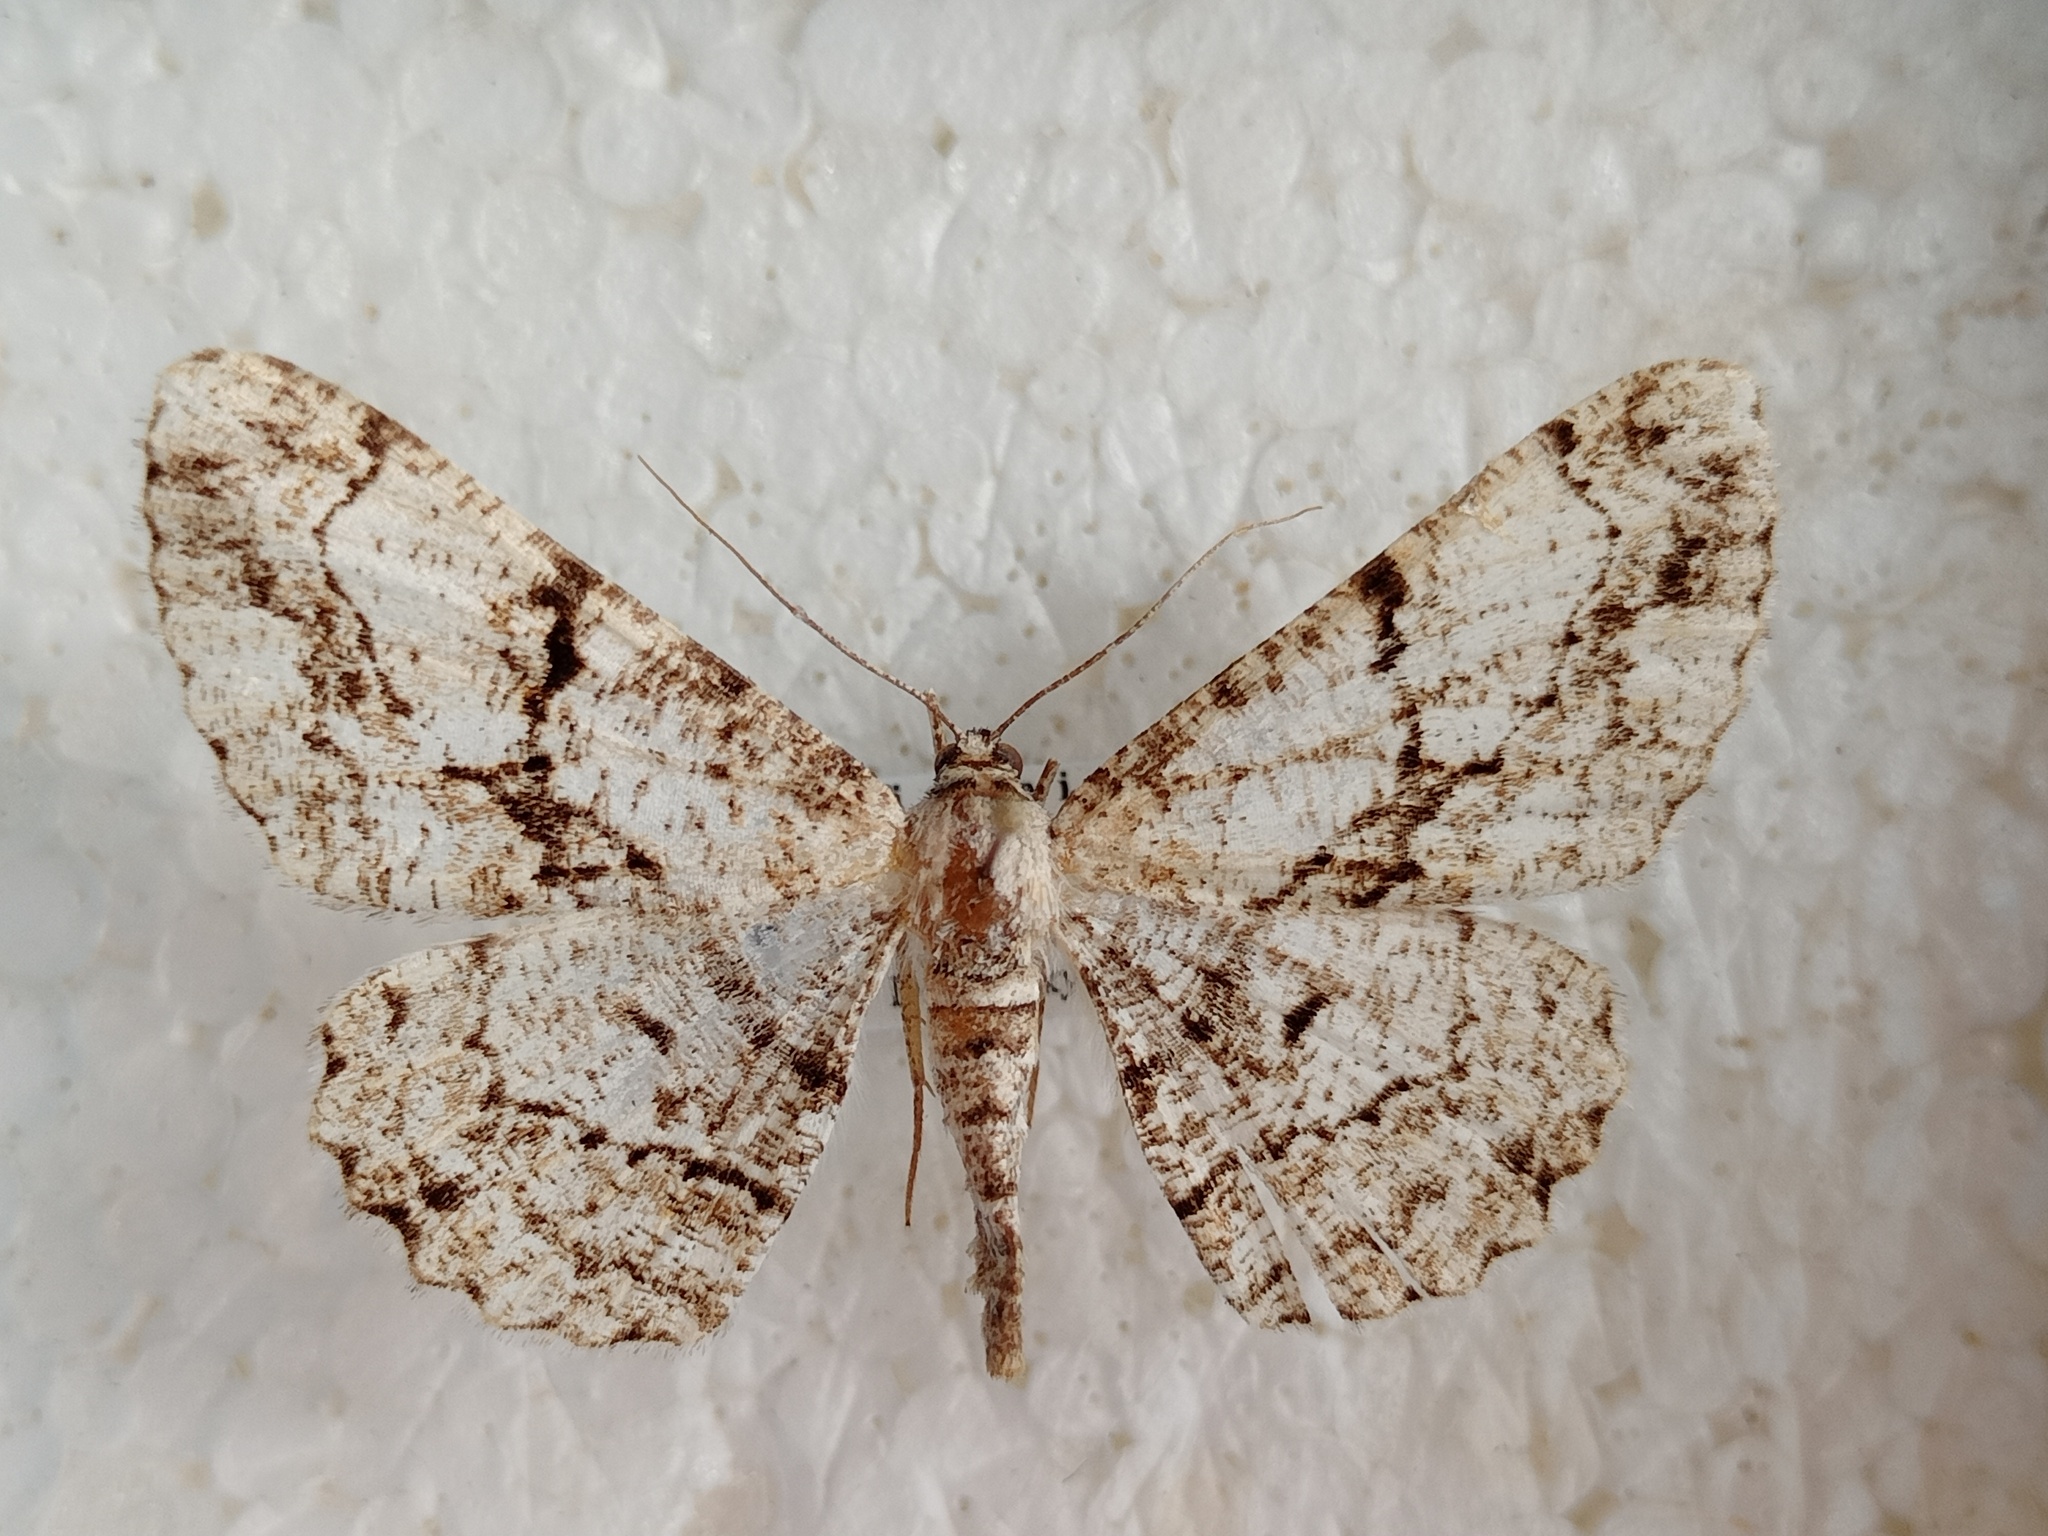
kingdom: Animalia
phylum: Arthropoda
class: Insecta
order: Lepidoptera
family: Geometridae
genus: Peribatodes
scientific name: Peribatodes umbraria
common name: Olive-tree beauty
